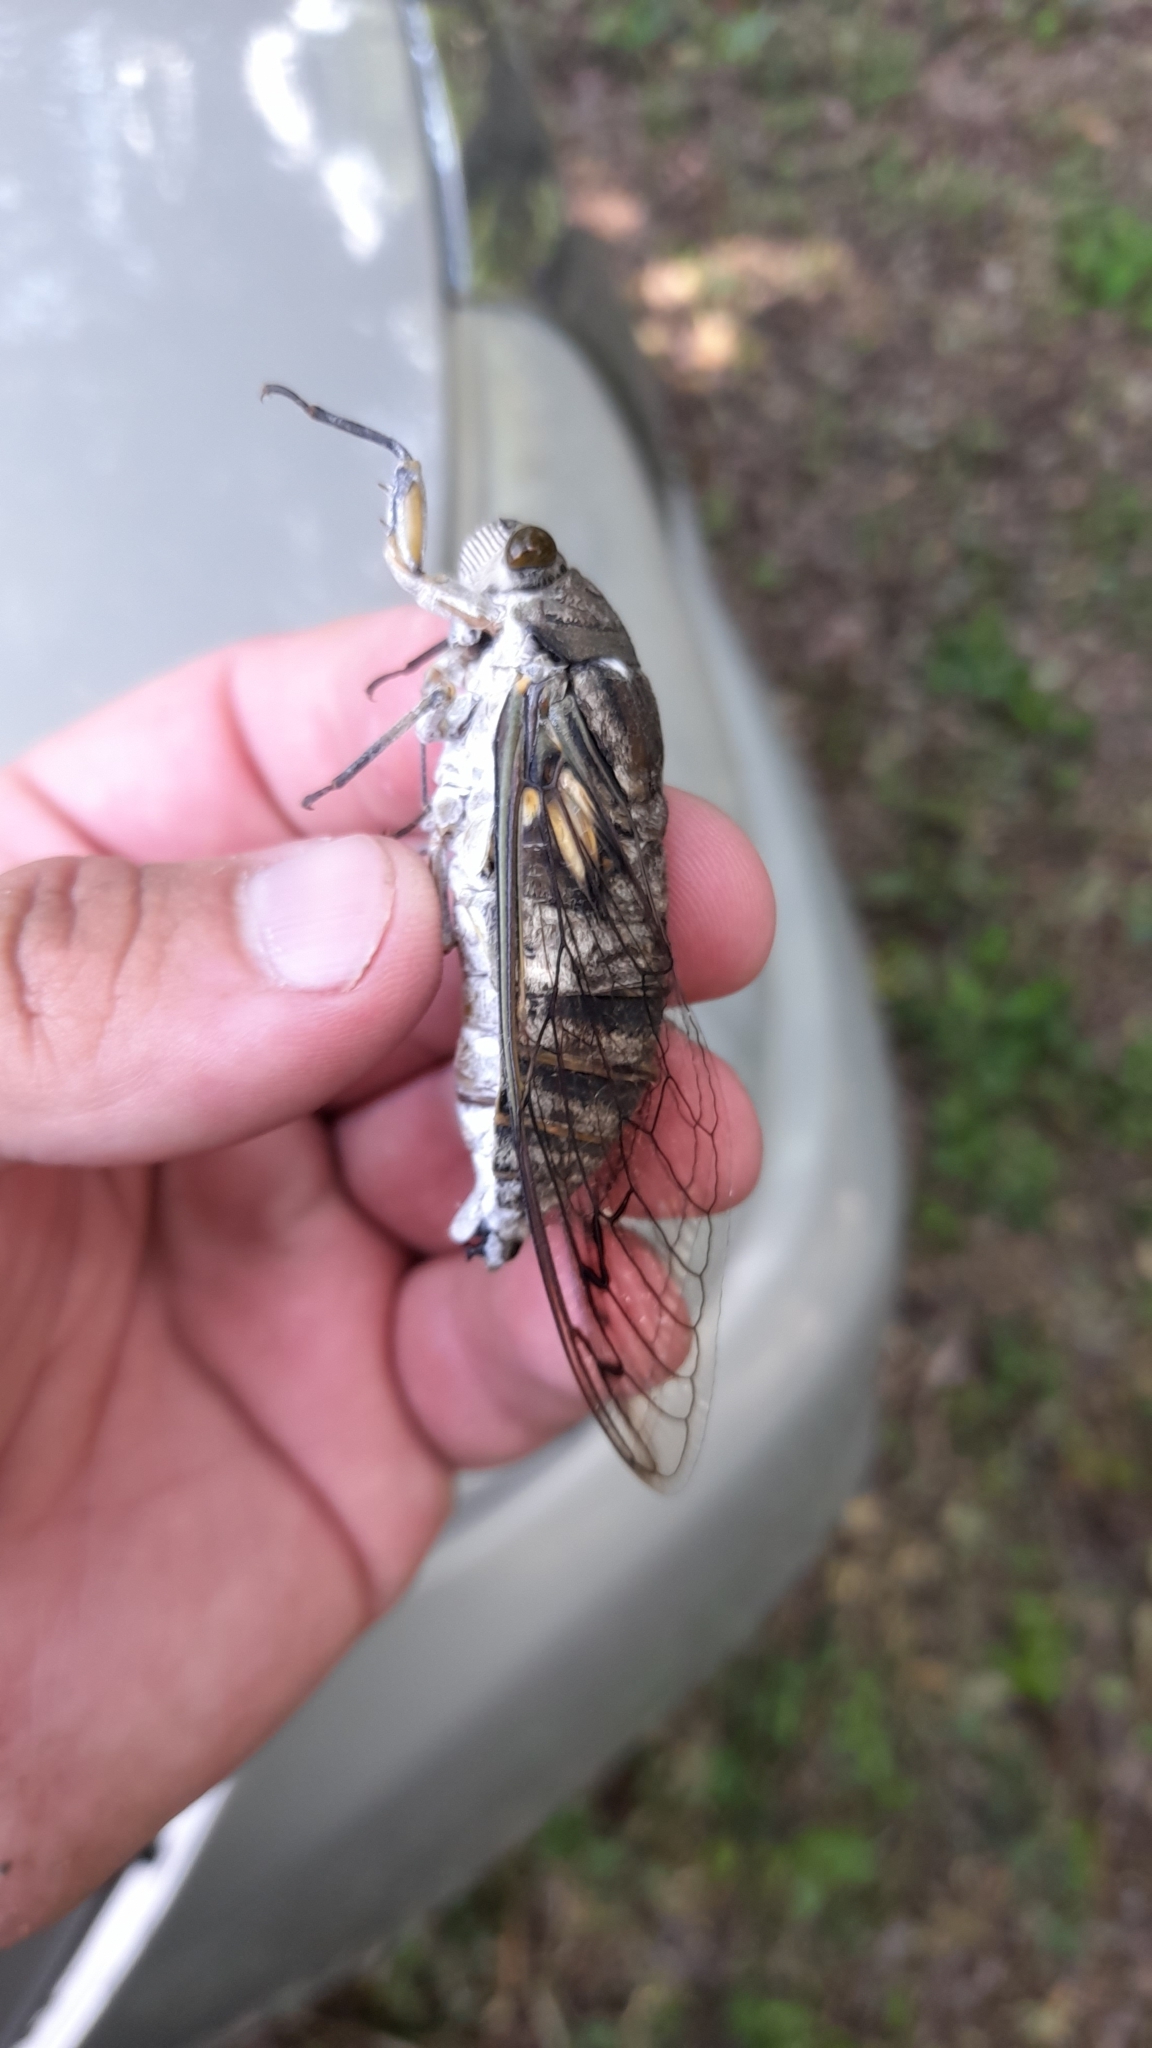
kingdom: Animalia
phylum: Arthropoda
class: Insecta
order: Hemiptera
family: Cicadidae
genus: Quesada
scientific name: Quesada gigas
